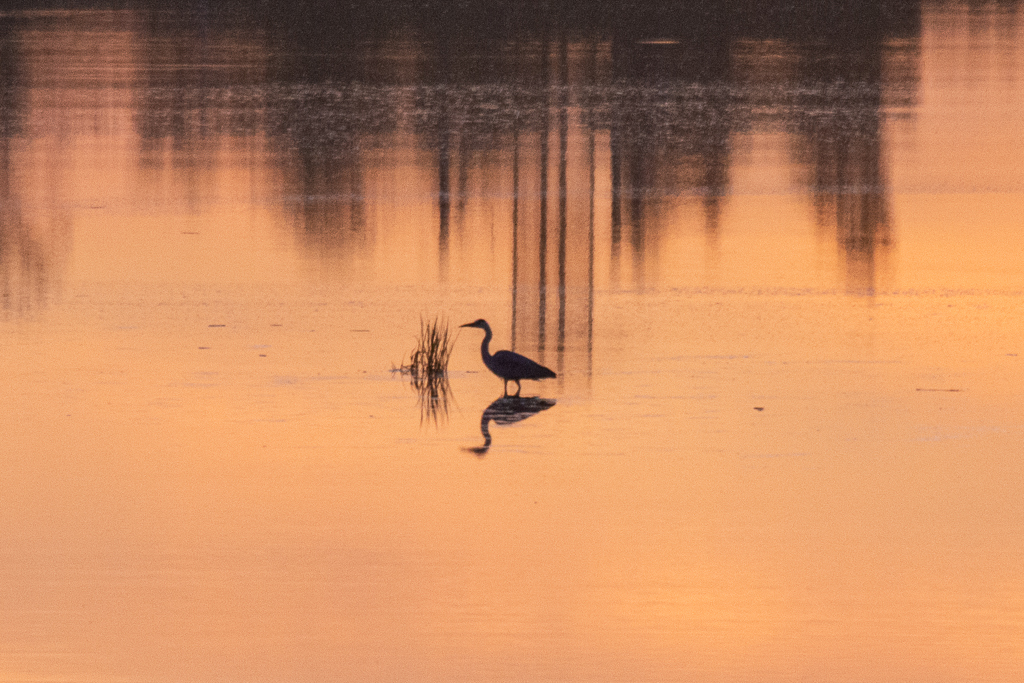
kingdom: Animalia
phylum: Chordata
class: Aves
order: Pelecaniformes
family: Ardeidae
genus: Ardea
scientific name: Ardea cinerea
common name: Grey heron
